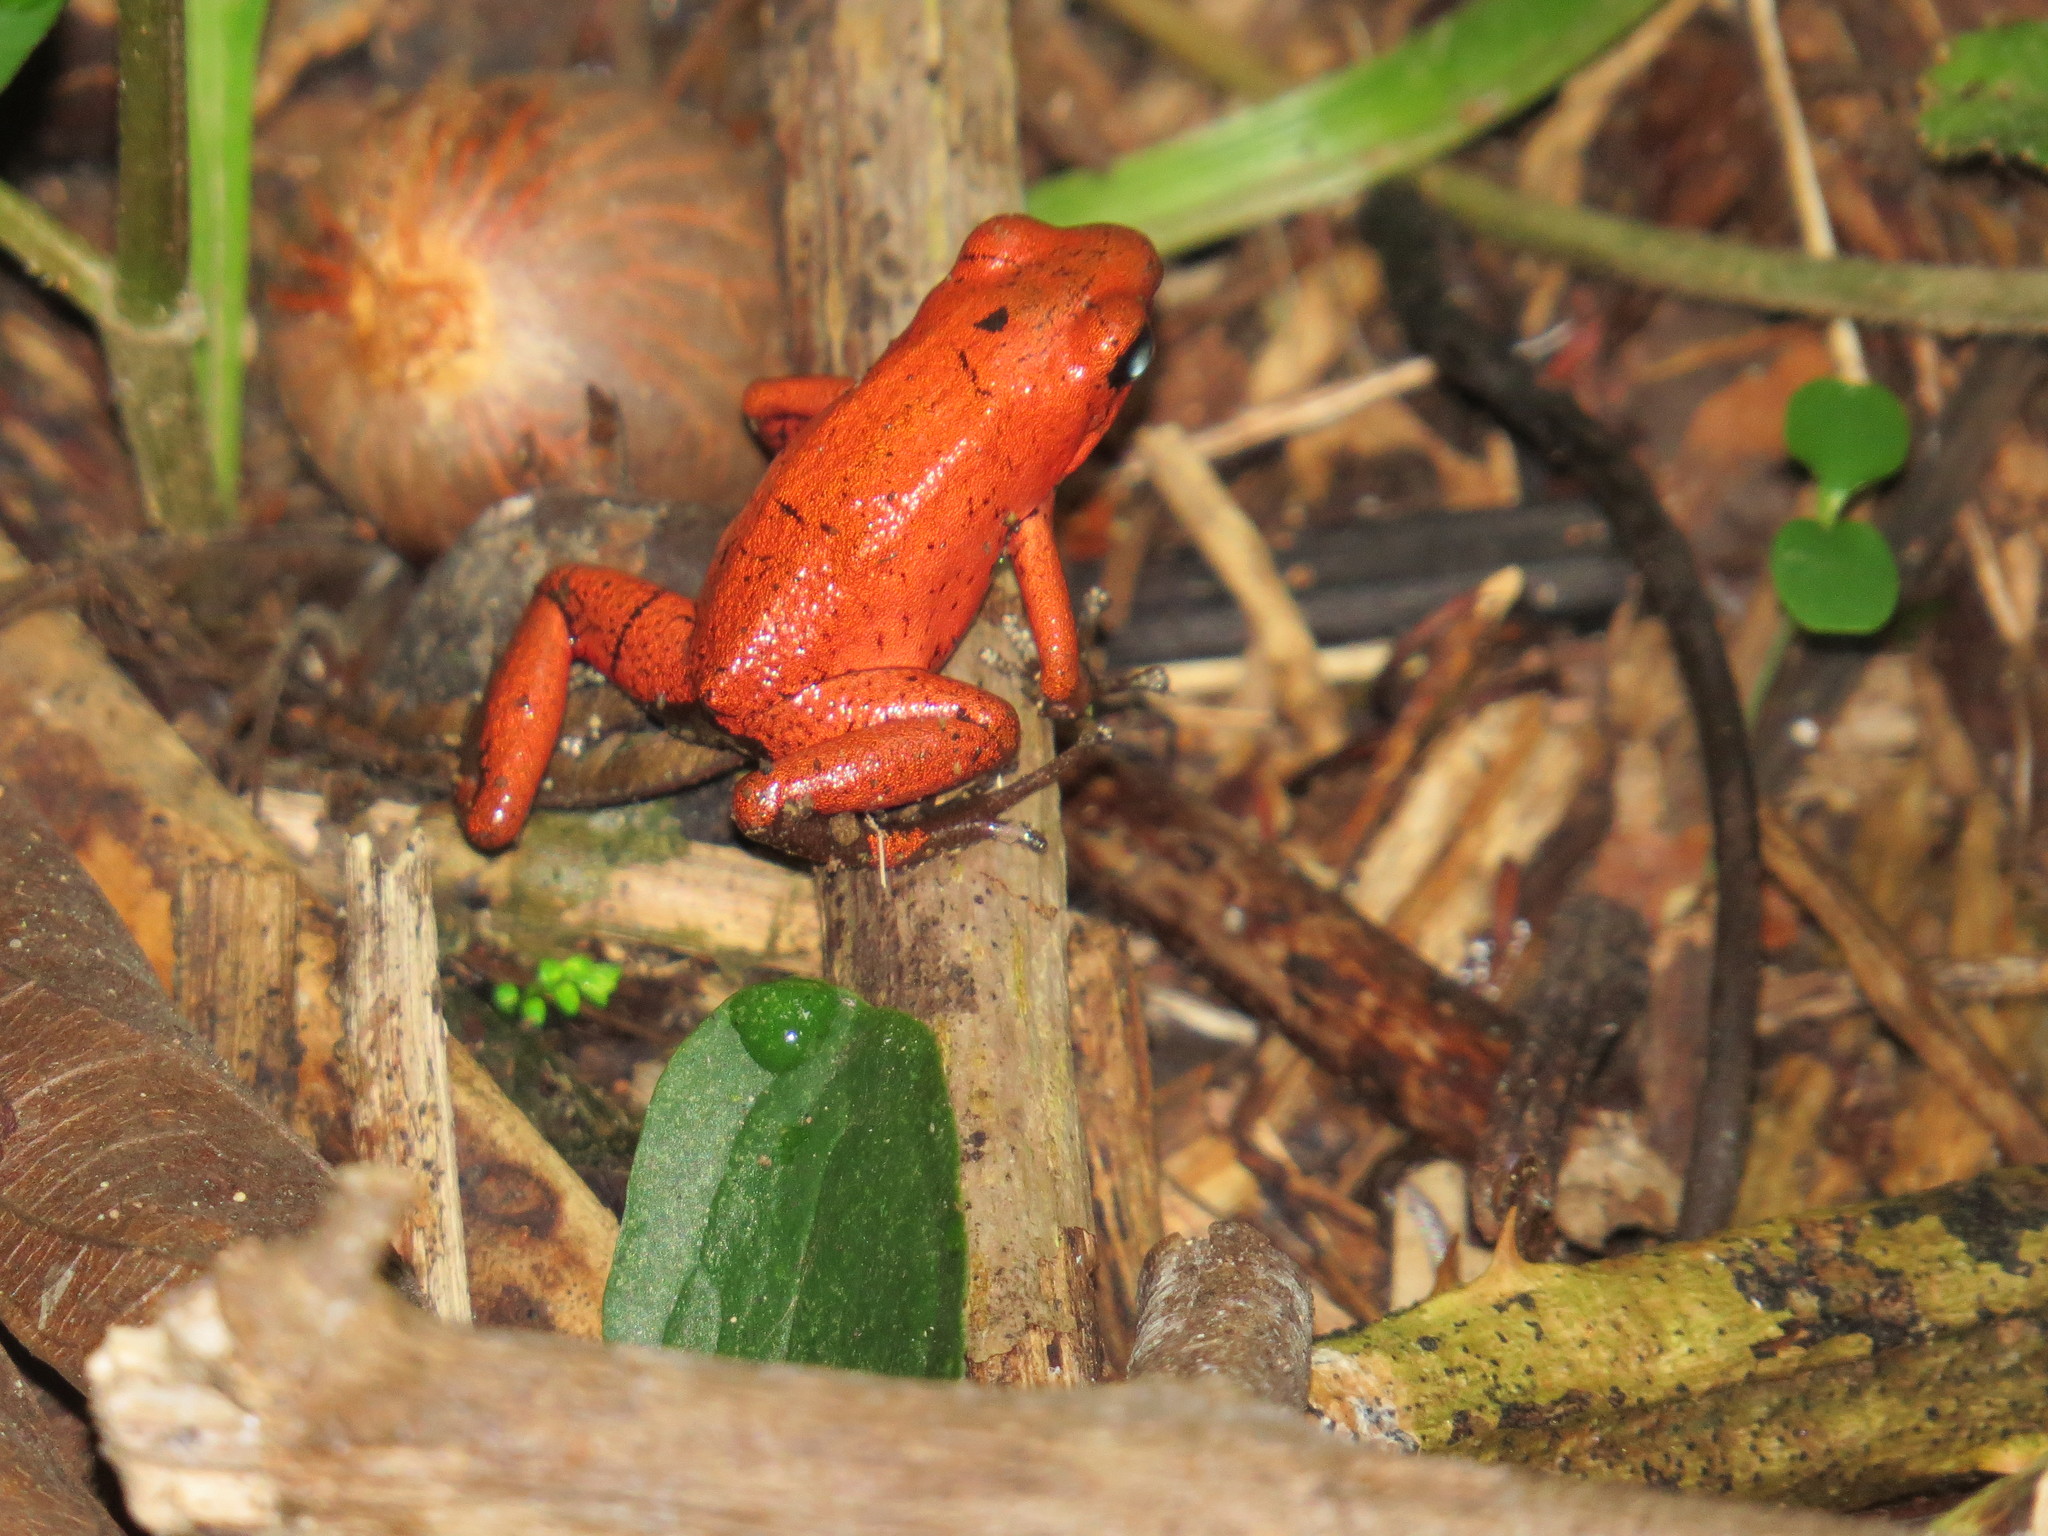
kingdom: Animalia
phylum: Chordata
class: Amphibia
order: Anura
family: Dendrobatidae
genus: Oophaga
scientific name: Oophaga pumilio
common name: Flaming poison frog
